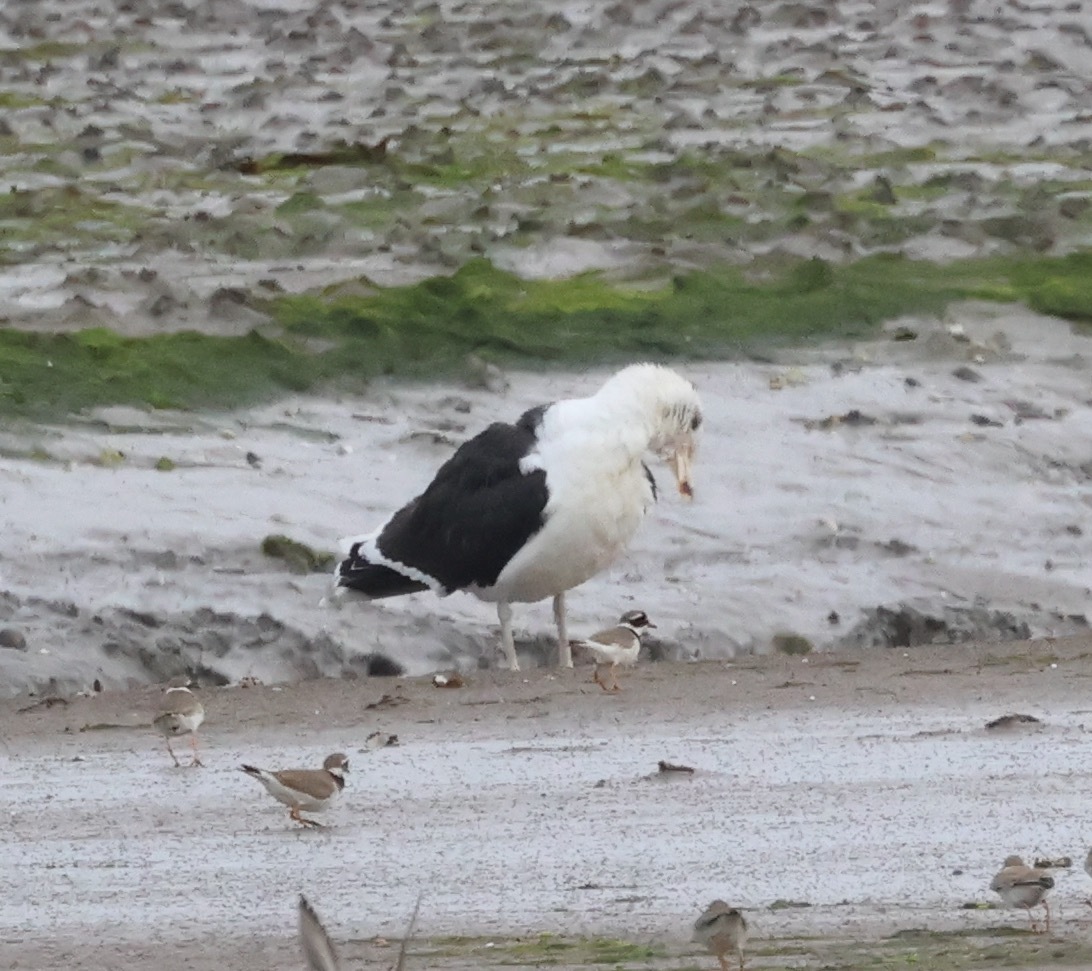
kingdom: Animalia
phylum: Chordata
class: Aves
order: Charadriiformes
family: Laridae
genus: Larus
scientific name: Larus marinus
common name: Great black-backed gull
